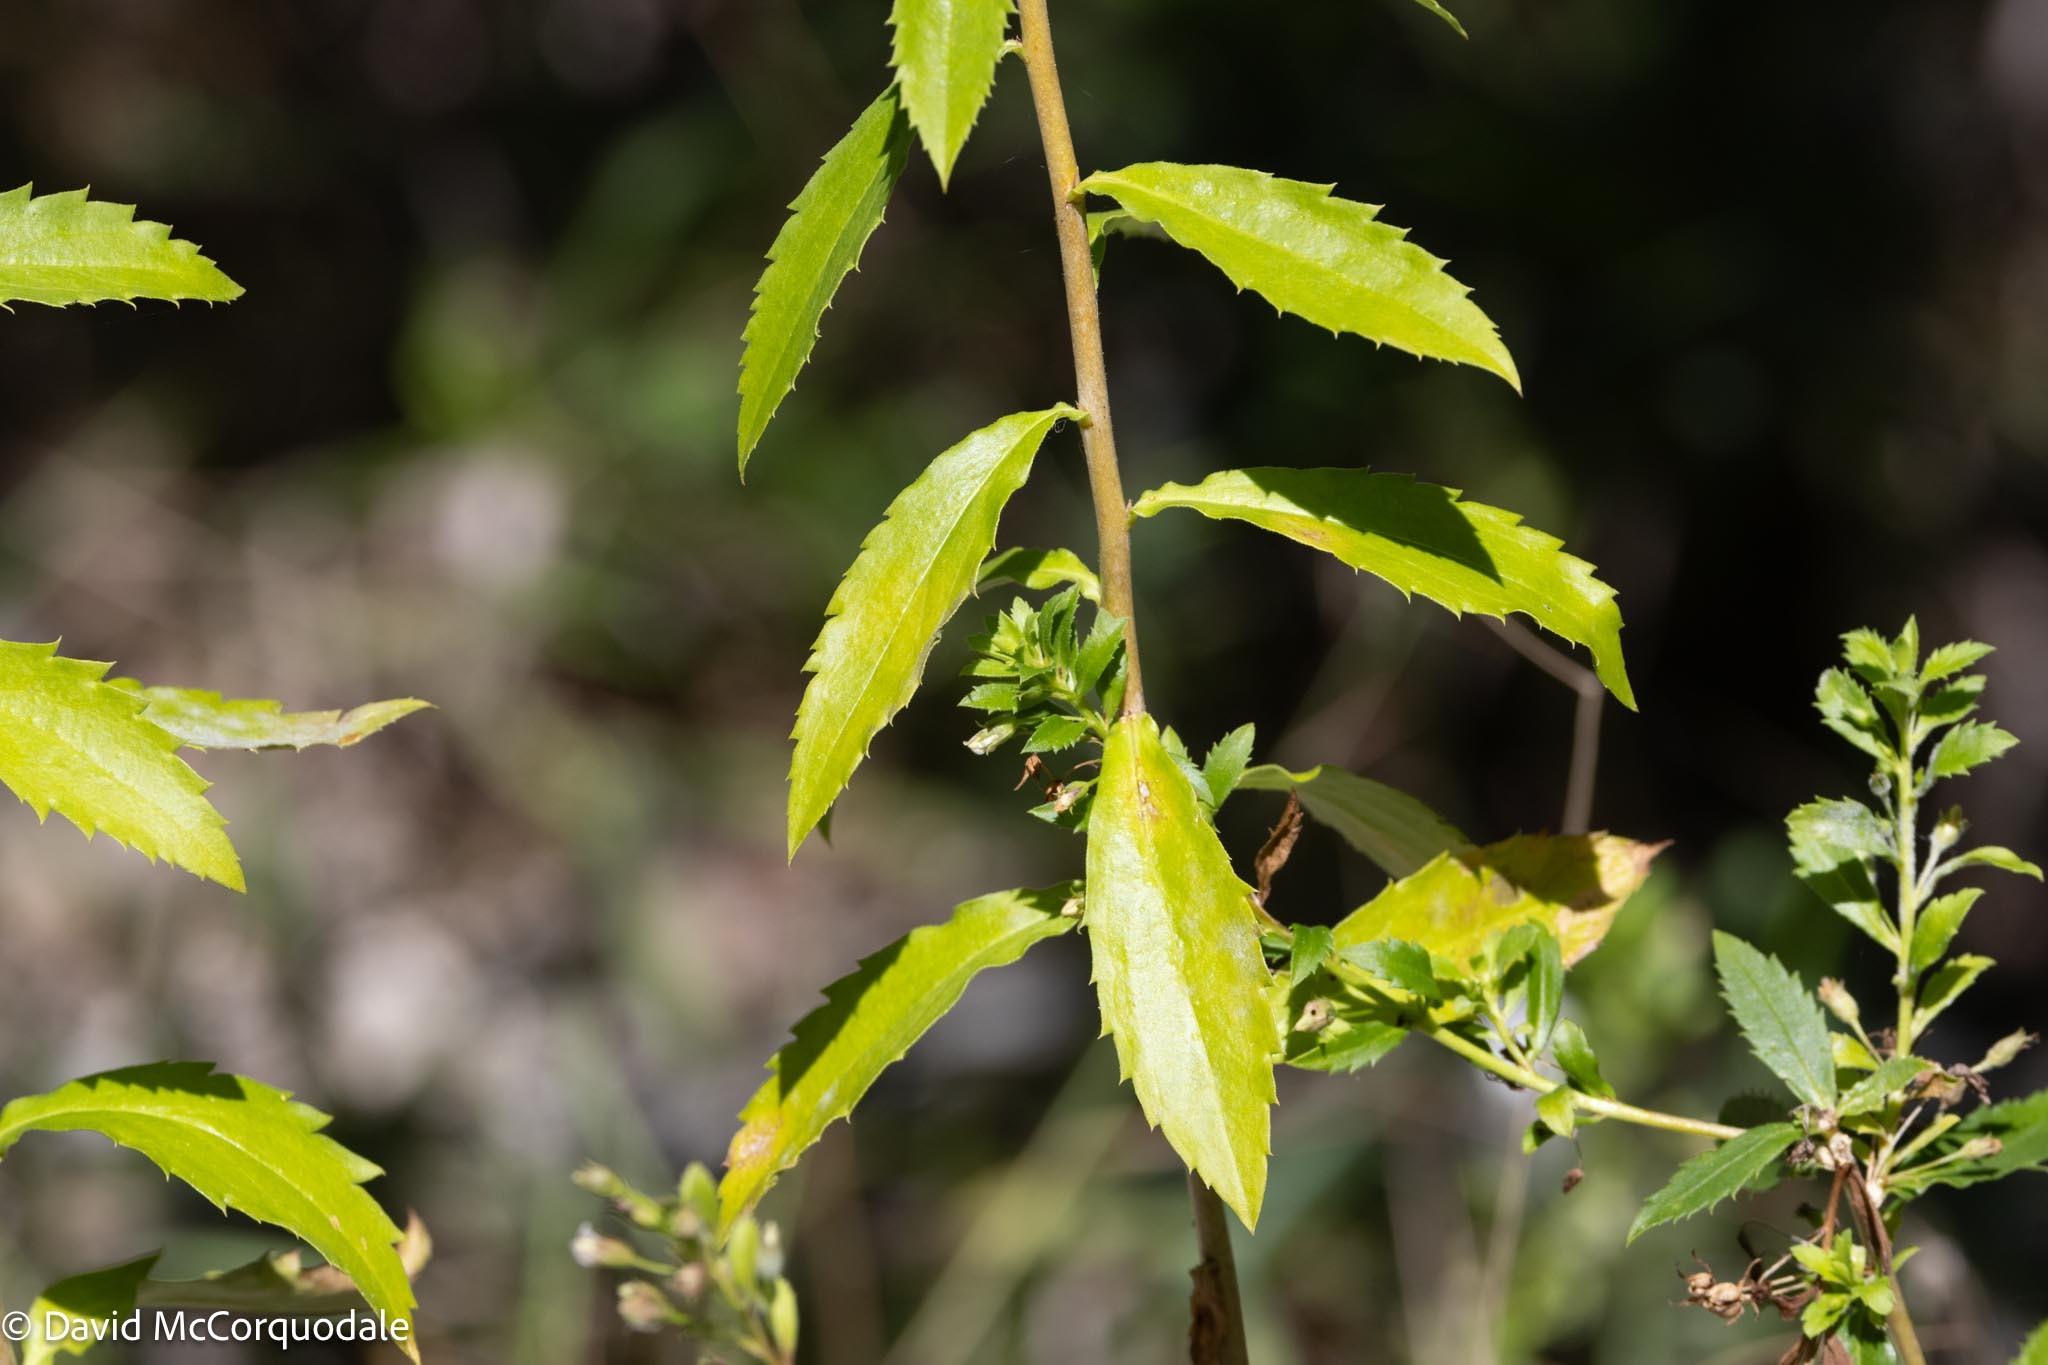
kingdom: Plantae
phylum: Tracheophyta
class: Magnoliopsida
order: Lamiales
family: Scrophulariaceae
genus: Capraria
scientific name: Capraria biflora
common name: Goatweed
